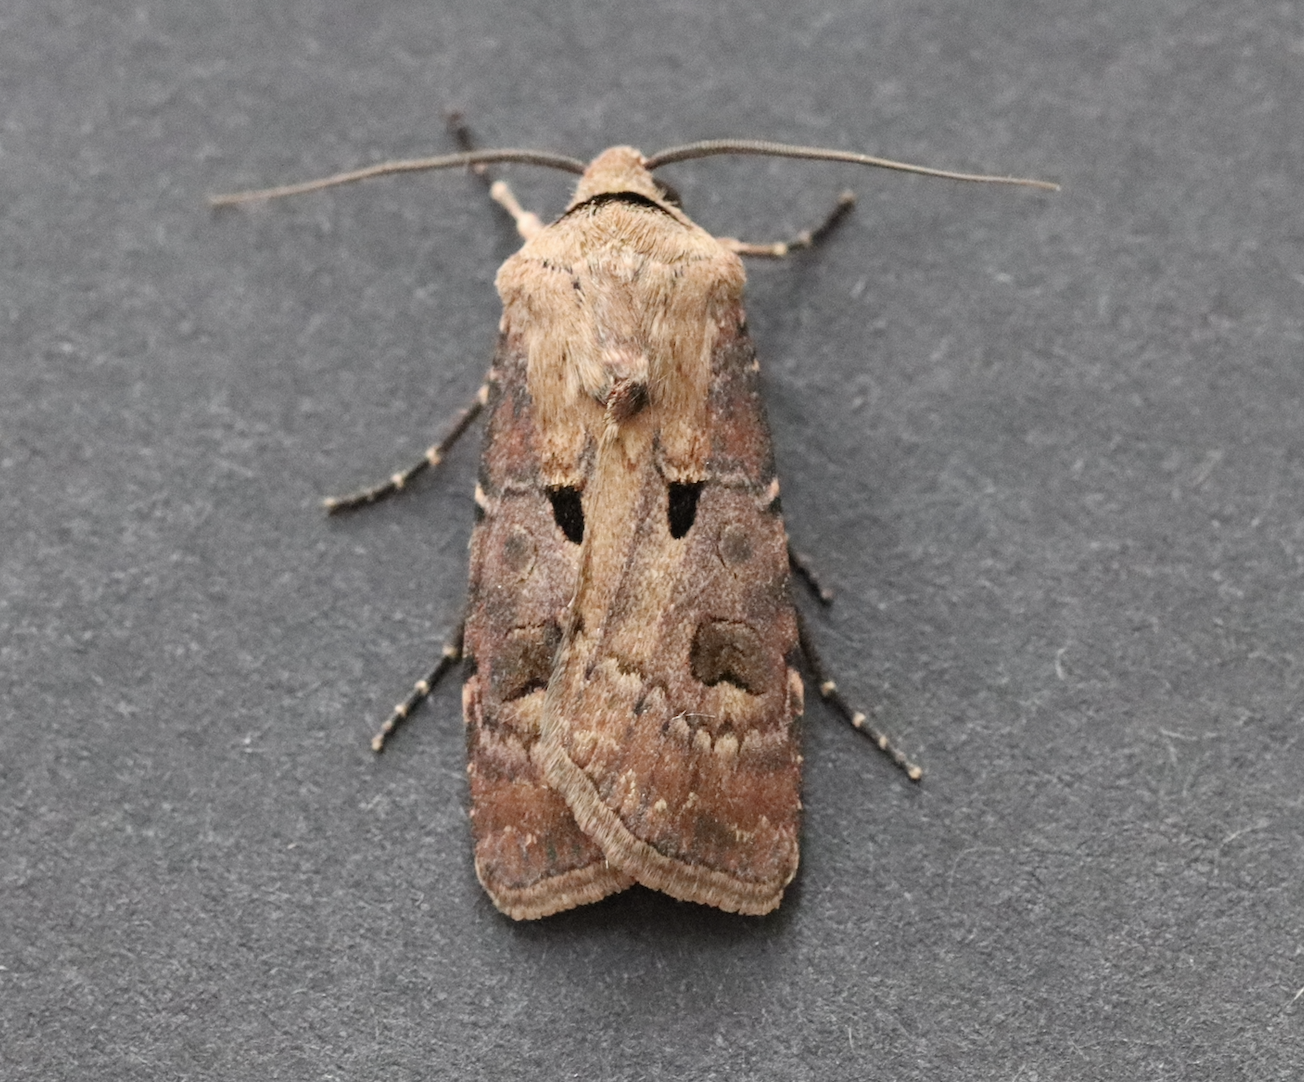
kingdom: Animalia
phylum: Arthropoda
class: Insecta
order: Lepidoptera
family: Noctuidae
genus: Agrotis
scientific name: Agrotis exclamationis
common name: Heart and dart
